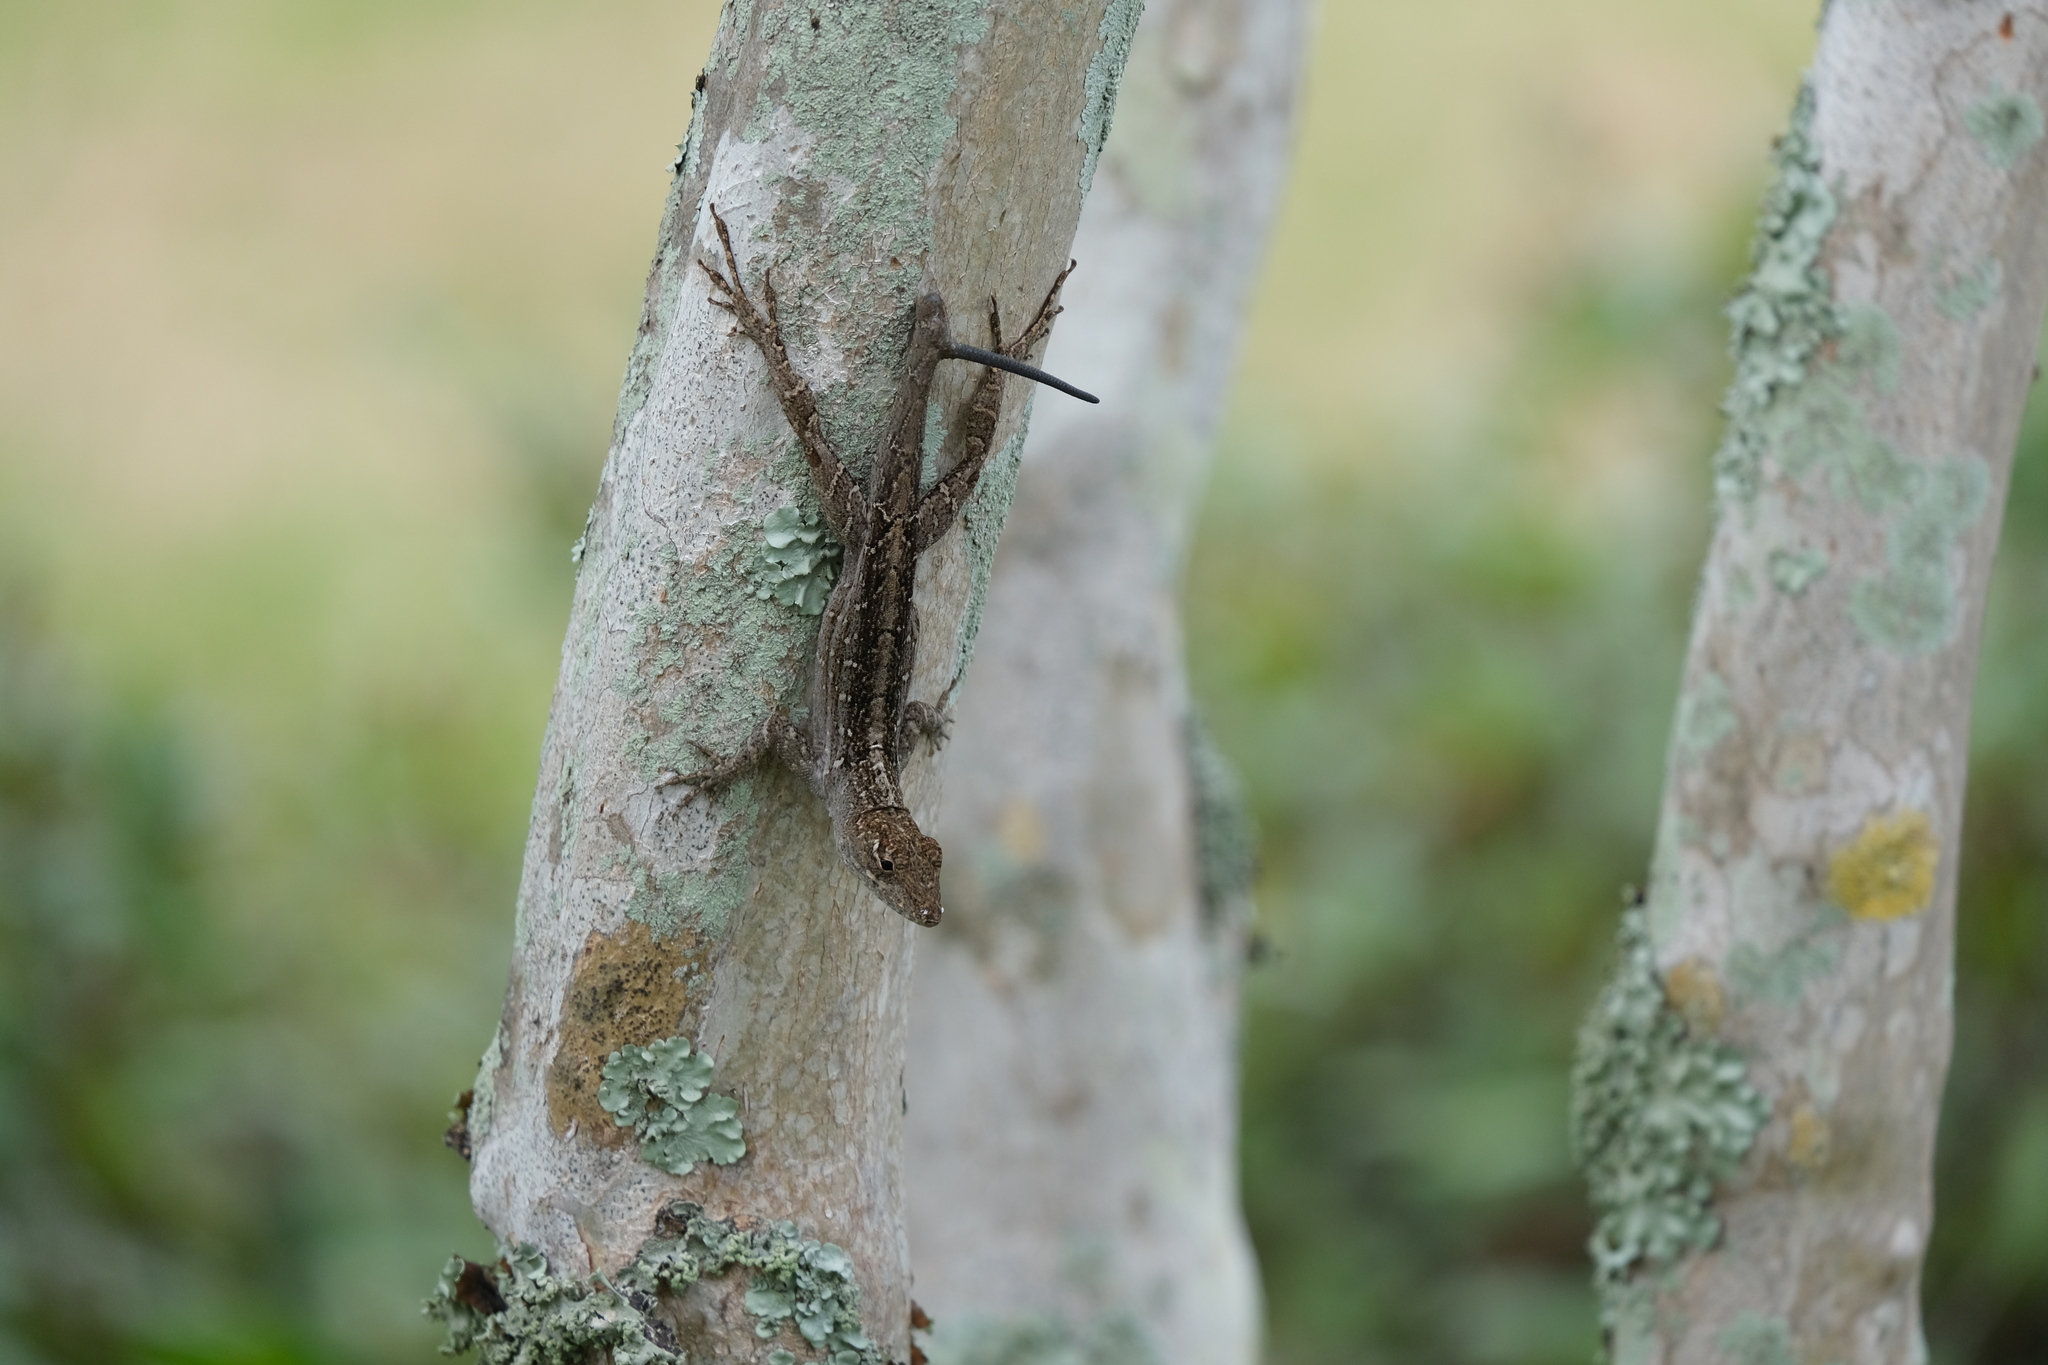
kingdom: Animalia
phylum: Chordata
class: Squamata
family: Dactyloidae
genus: Anolis
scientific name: Anolis sagrei
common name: Brown anole
